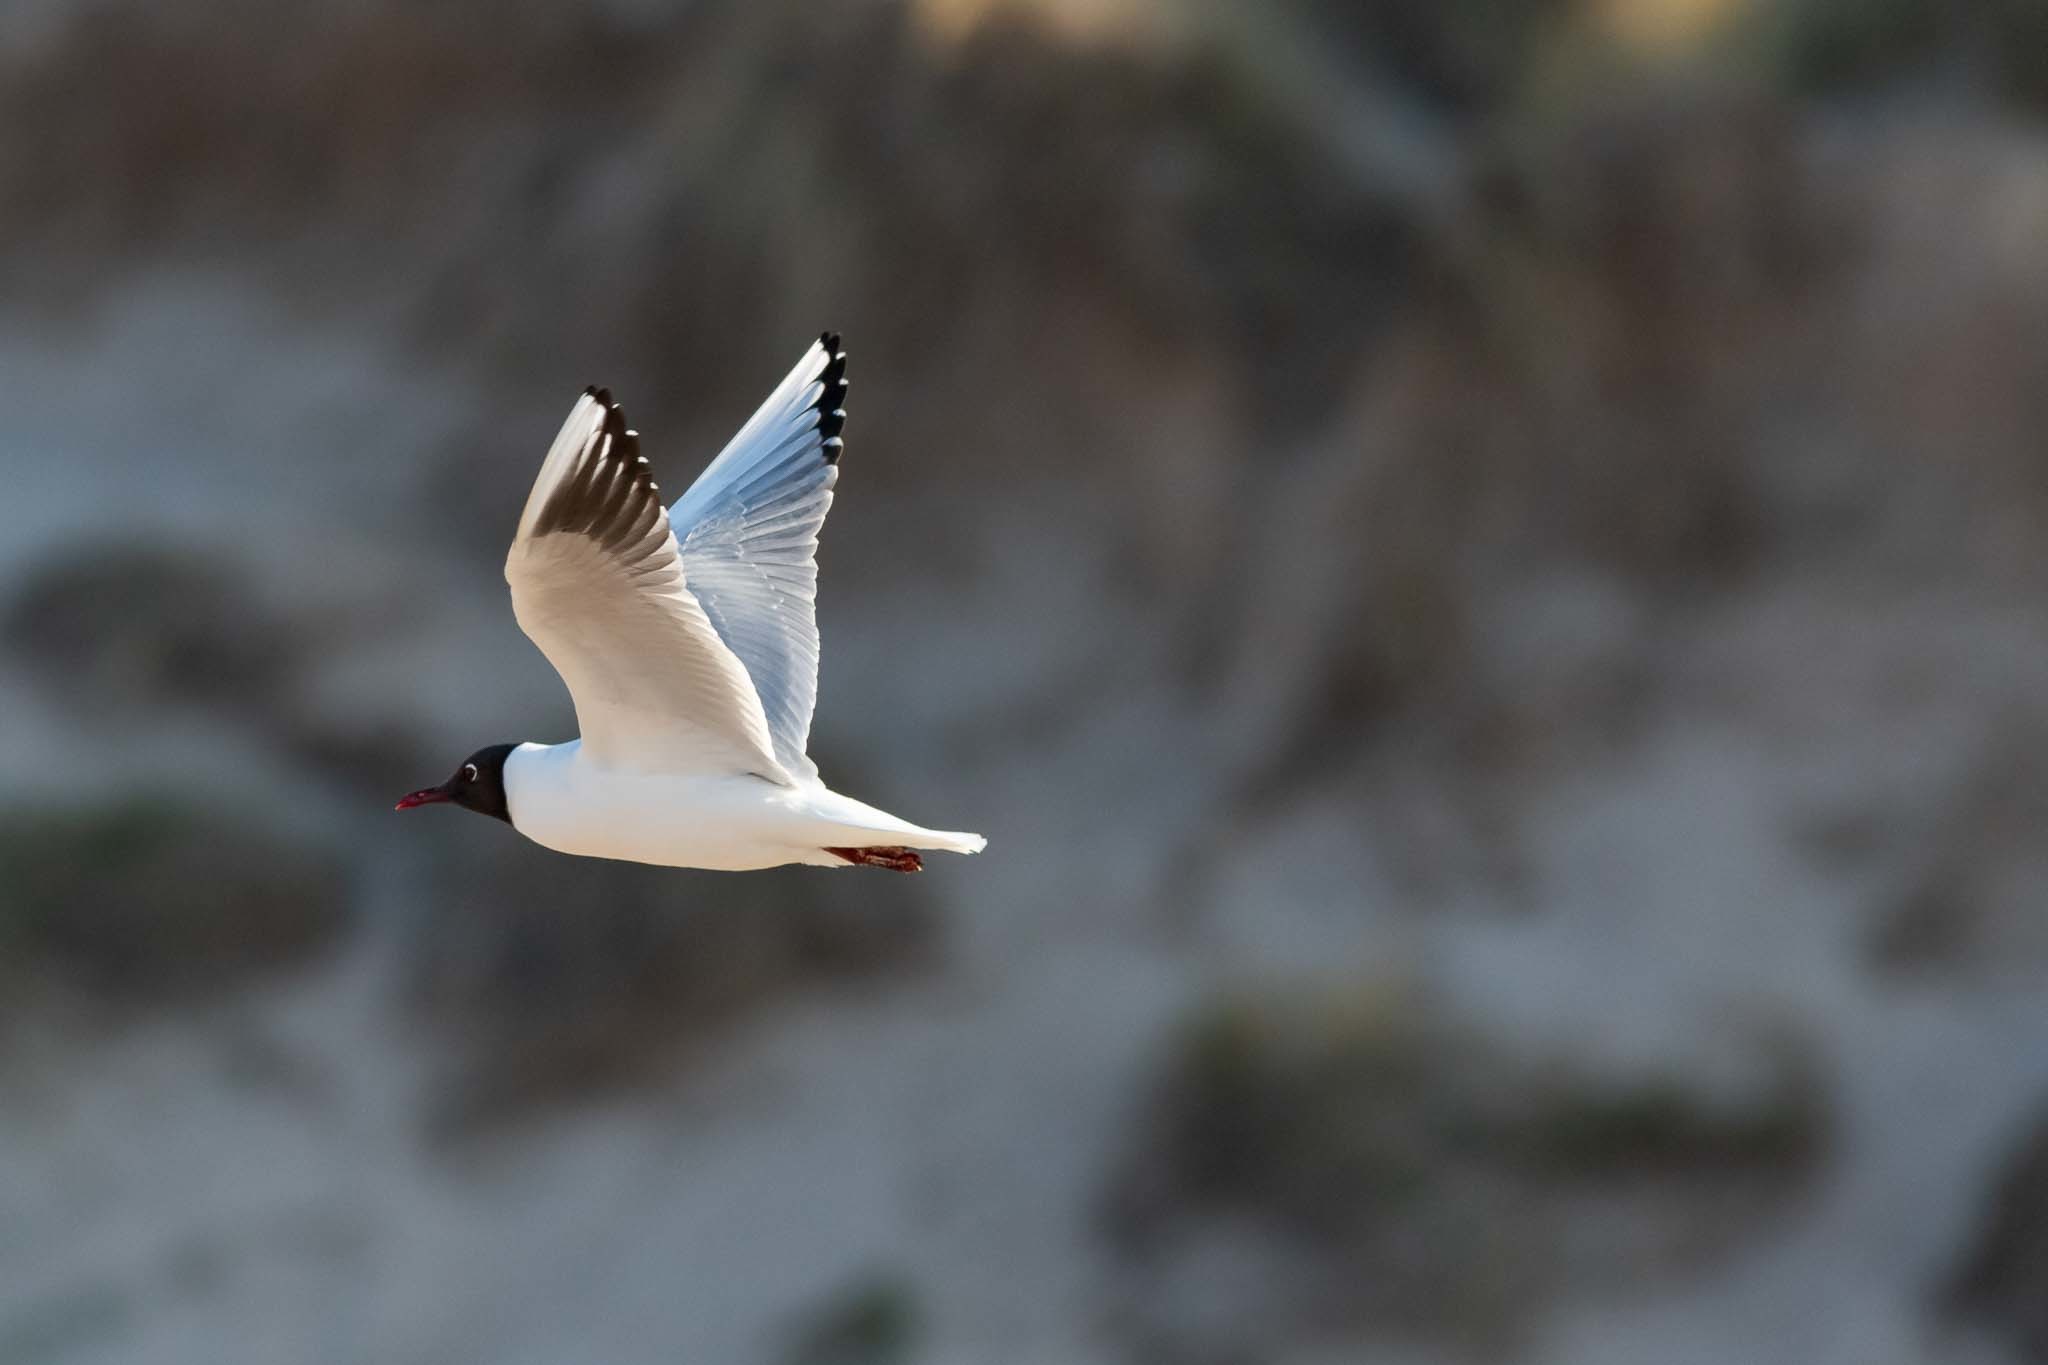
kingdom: Animalia
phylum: Chordata
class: Aves
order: Charadriiformes
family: Laridae
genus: Chroicocephalus
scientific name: Chroicocephalus ridibundus
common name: Black-headed gull
